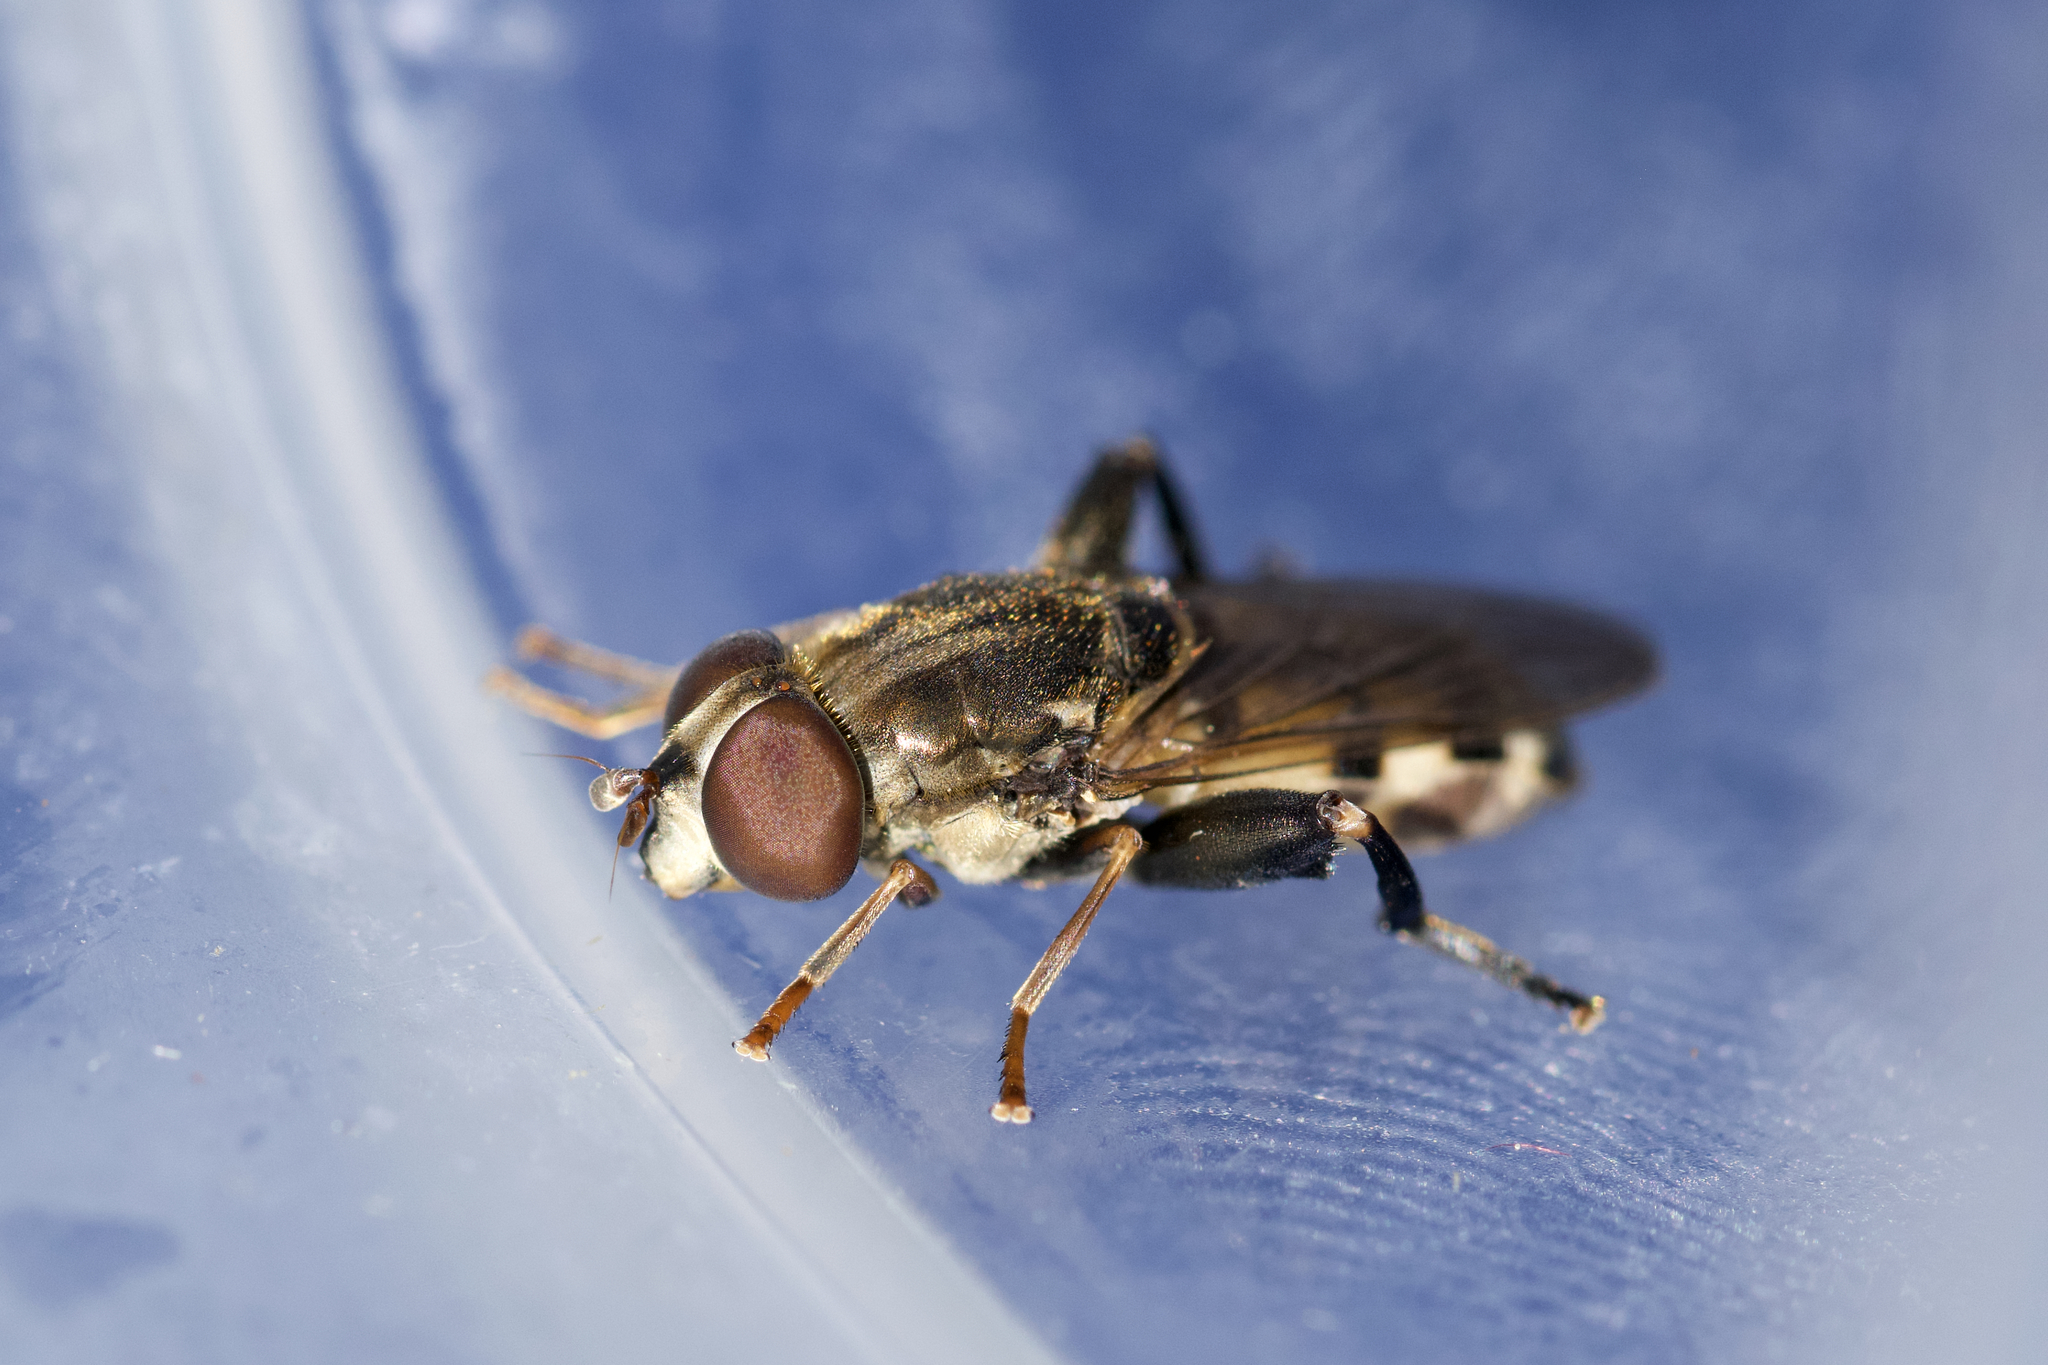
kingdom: Animalia
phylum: Arthropoda
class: Insecta
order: Diptera
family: Syrphidae
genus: Tropidia
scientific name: Tropidia quadrata
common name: Common thick-legged fly
